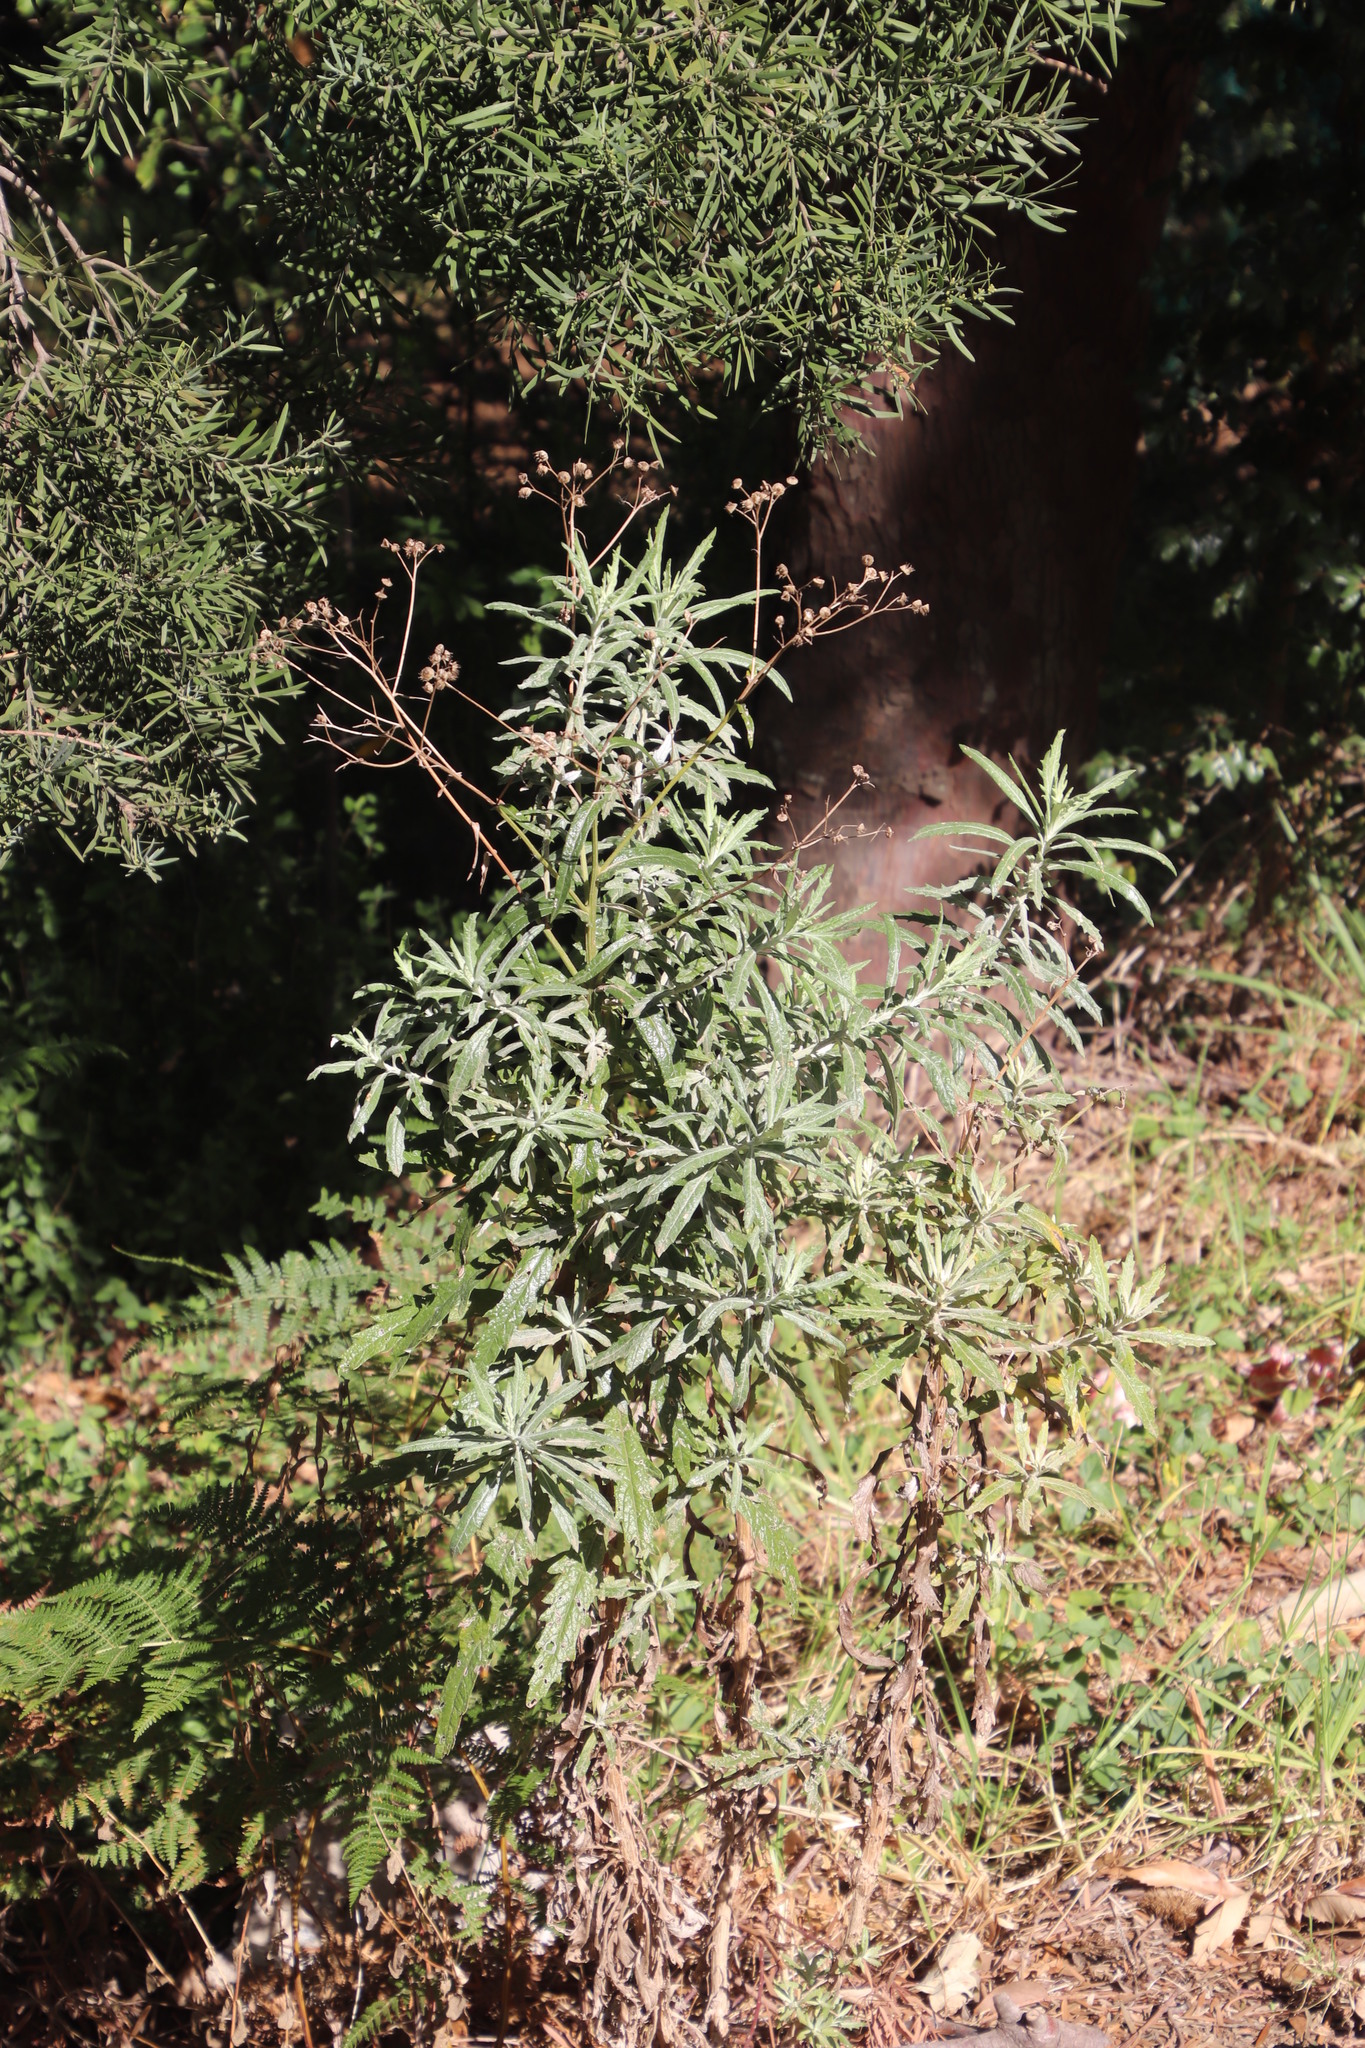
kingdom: Plantae
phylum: Tracheophyta
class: Magnoliopsida
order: Asterales
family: Asteraceae
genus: Senecio
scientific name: Senecio pterophorus
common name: Shoddy ragwort
